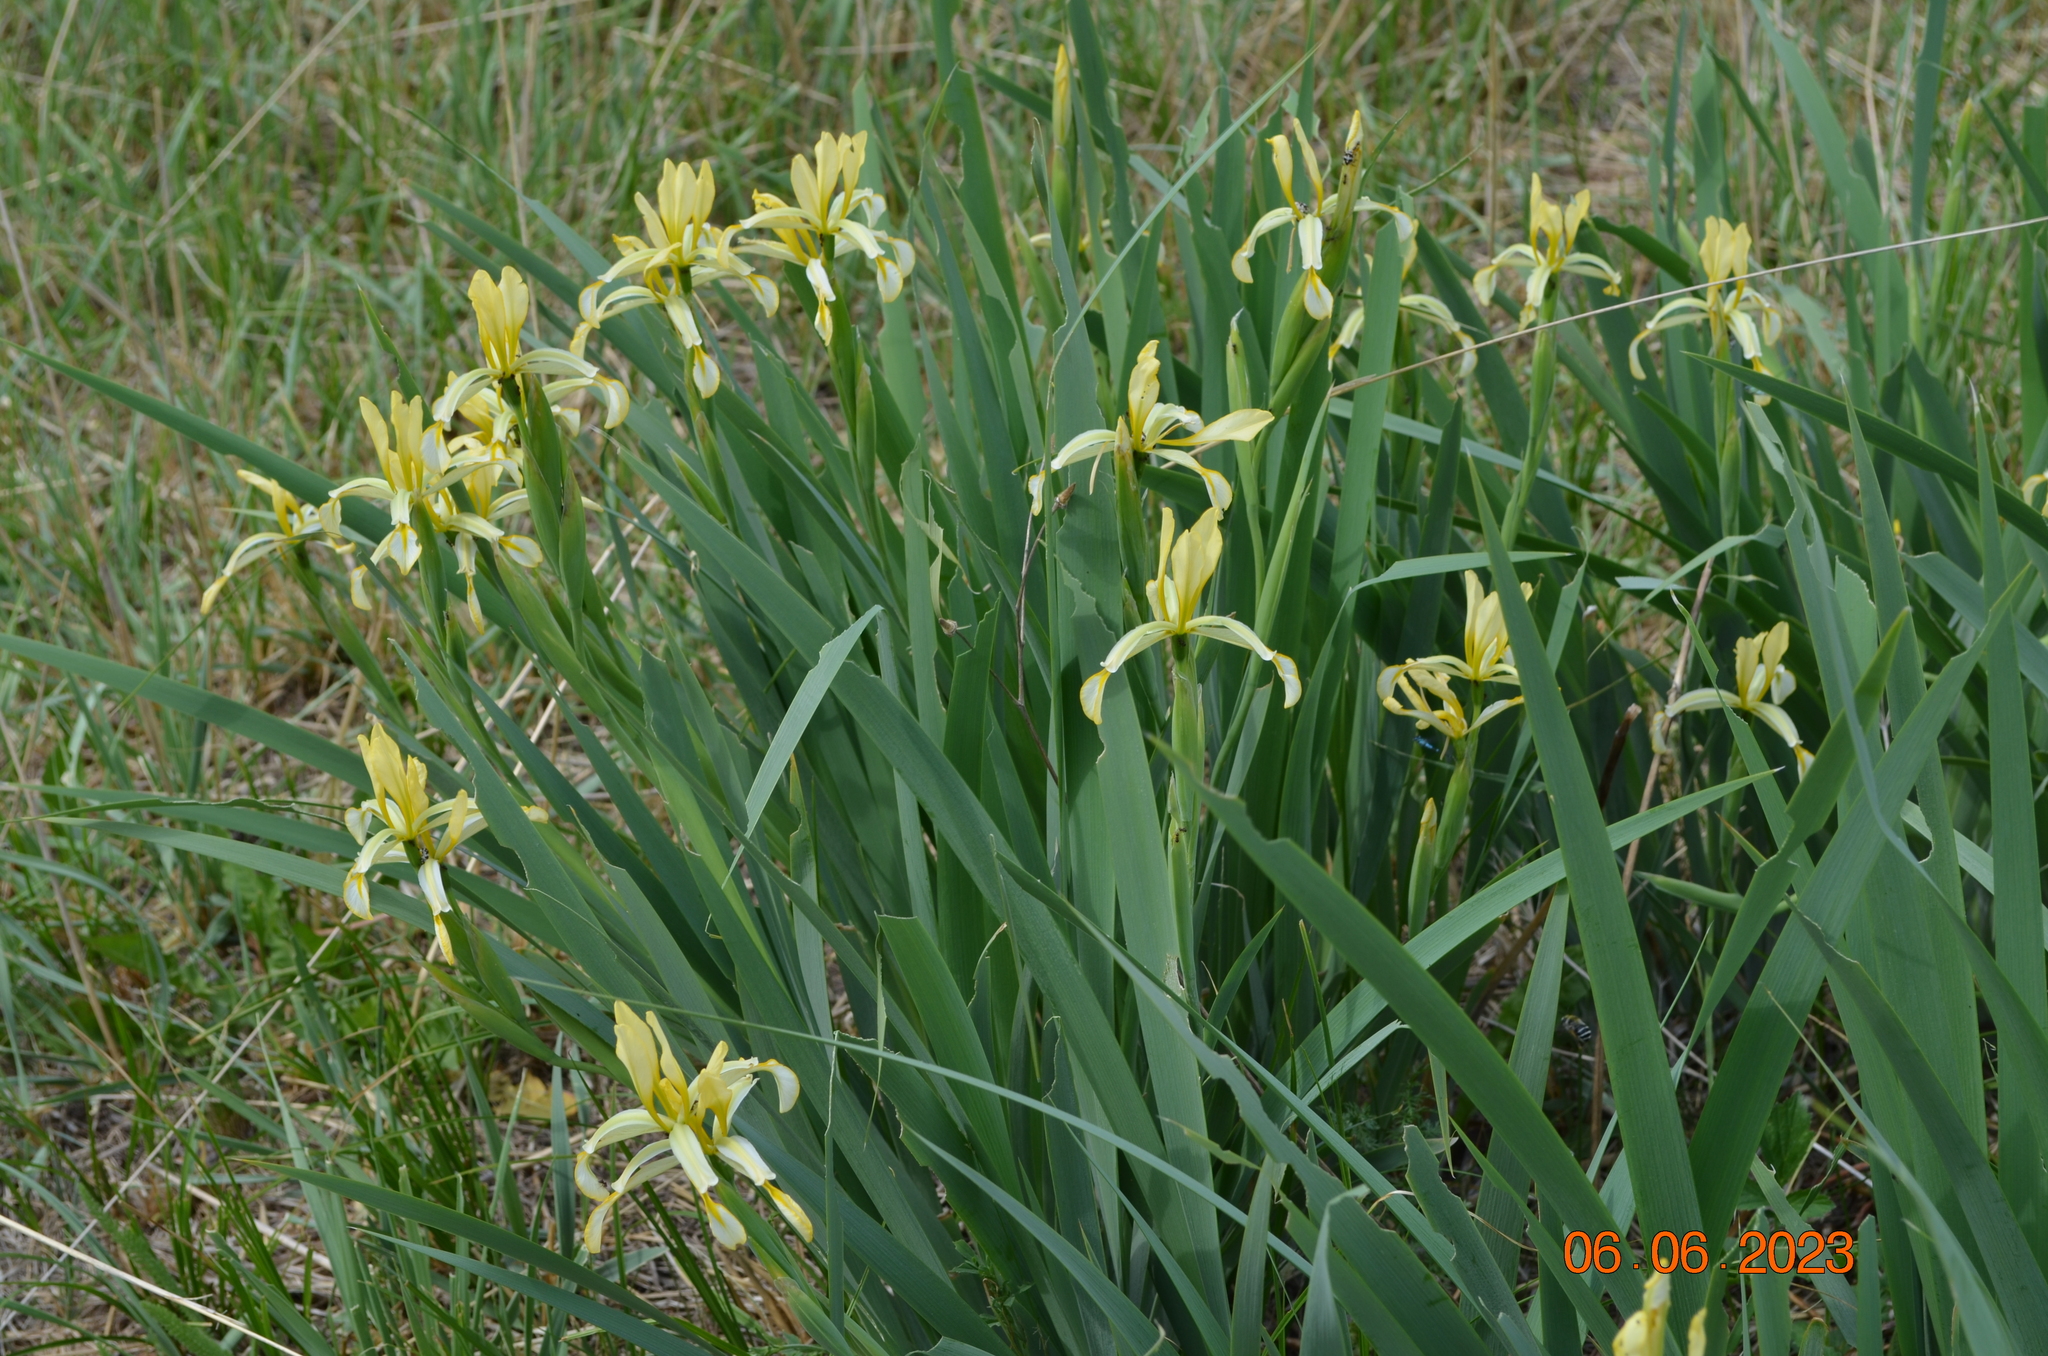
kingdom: Plantae
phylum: Tracheophyta
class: Liliopsida
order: Asparagales
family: Iridaceae
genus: Iris
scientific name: Iris halophila
